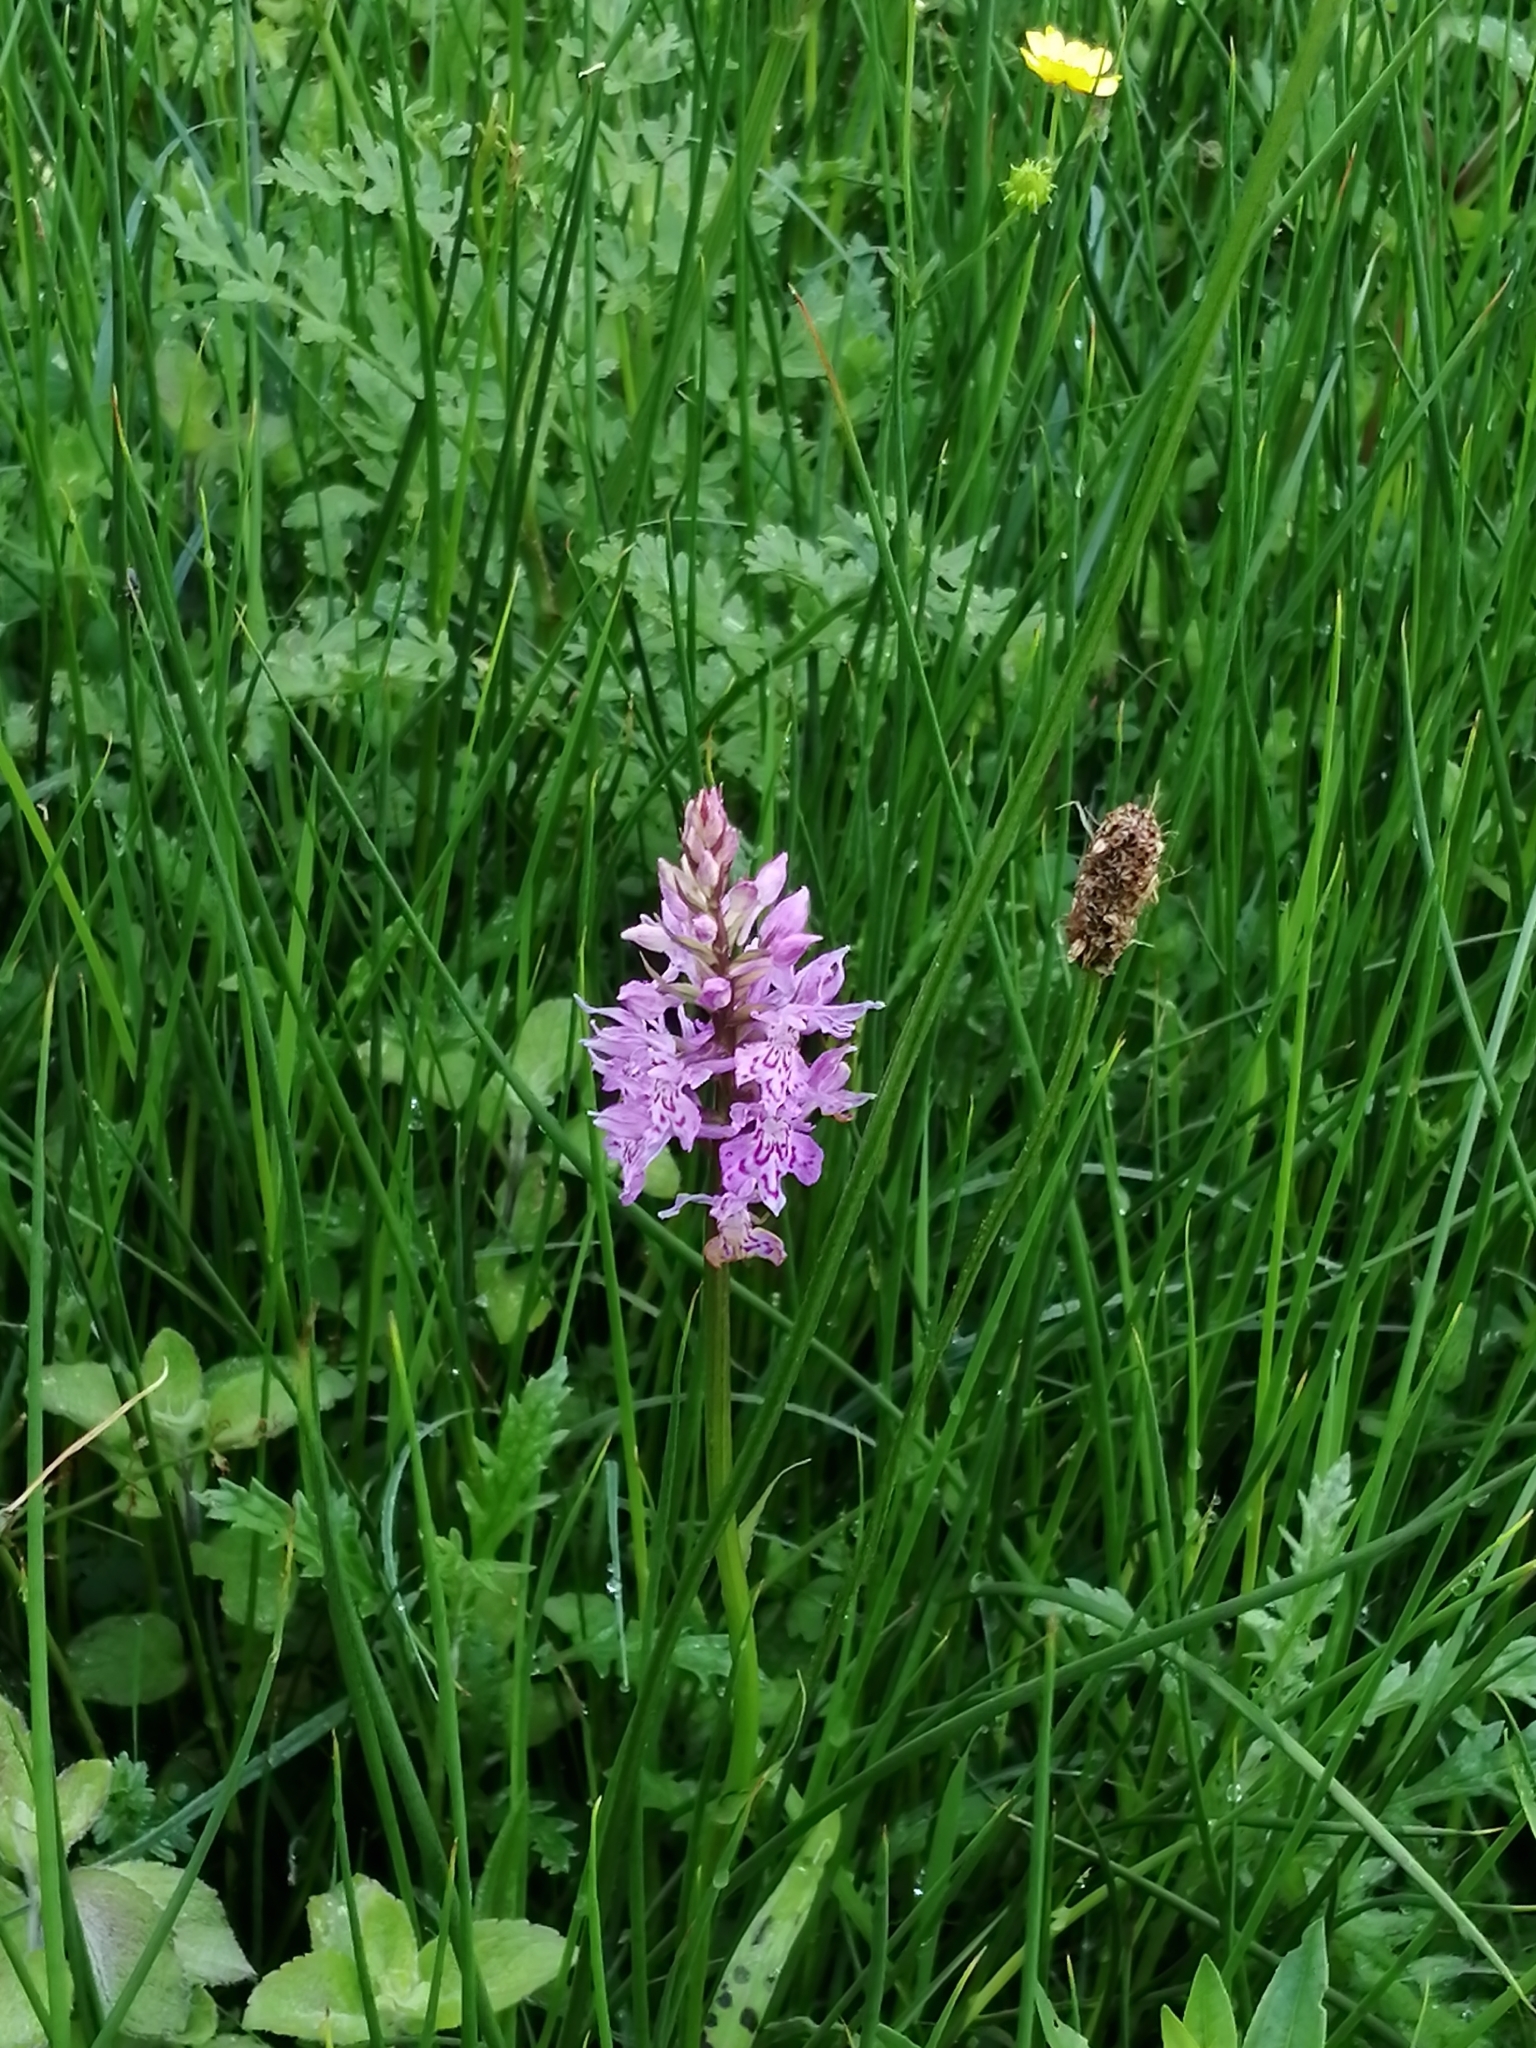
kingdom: Plantae
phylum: Tracheophyta
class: Liliopsida
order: Asparagales
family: Orchidaceae
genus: Dactylorhiza
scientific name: Dactylorhiza maculata
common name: Heath spotted-orchid
